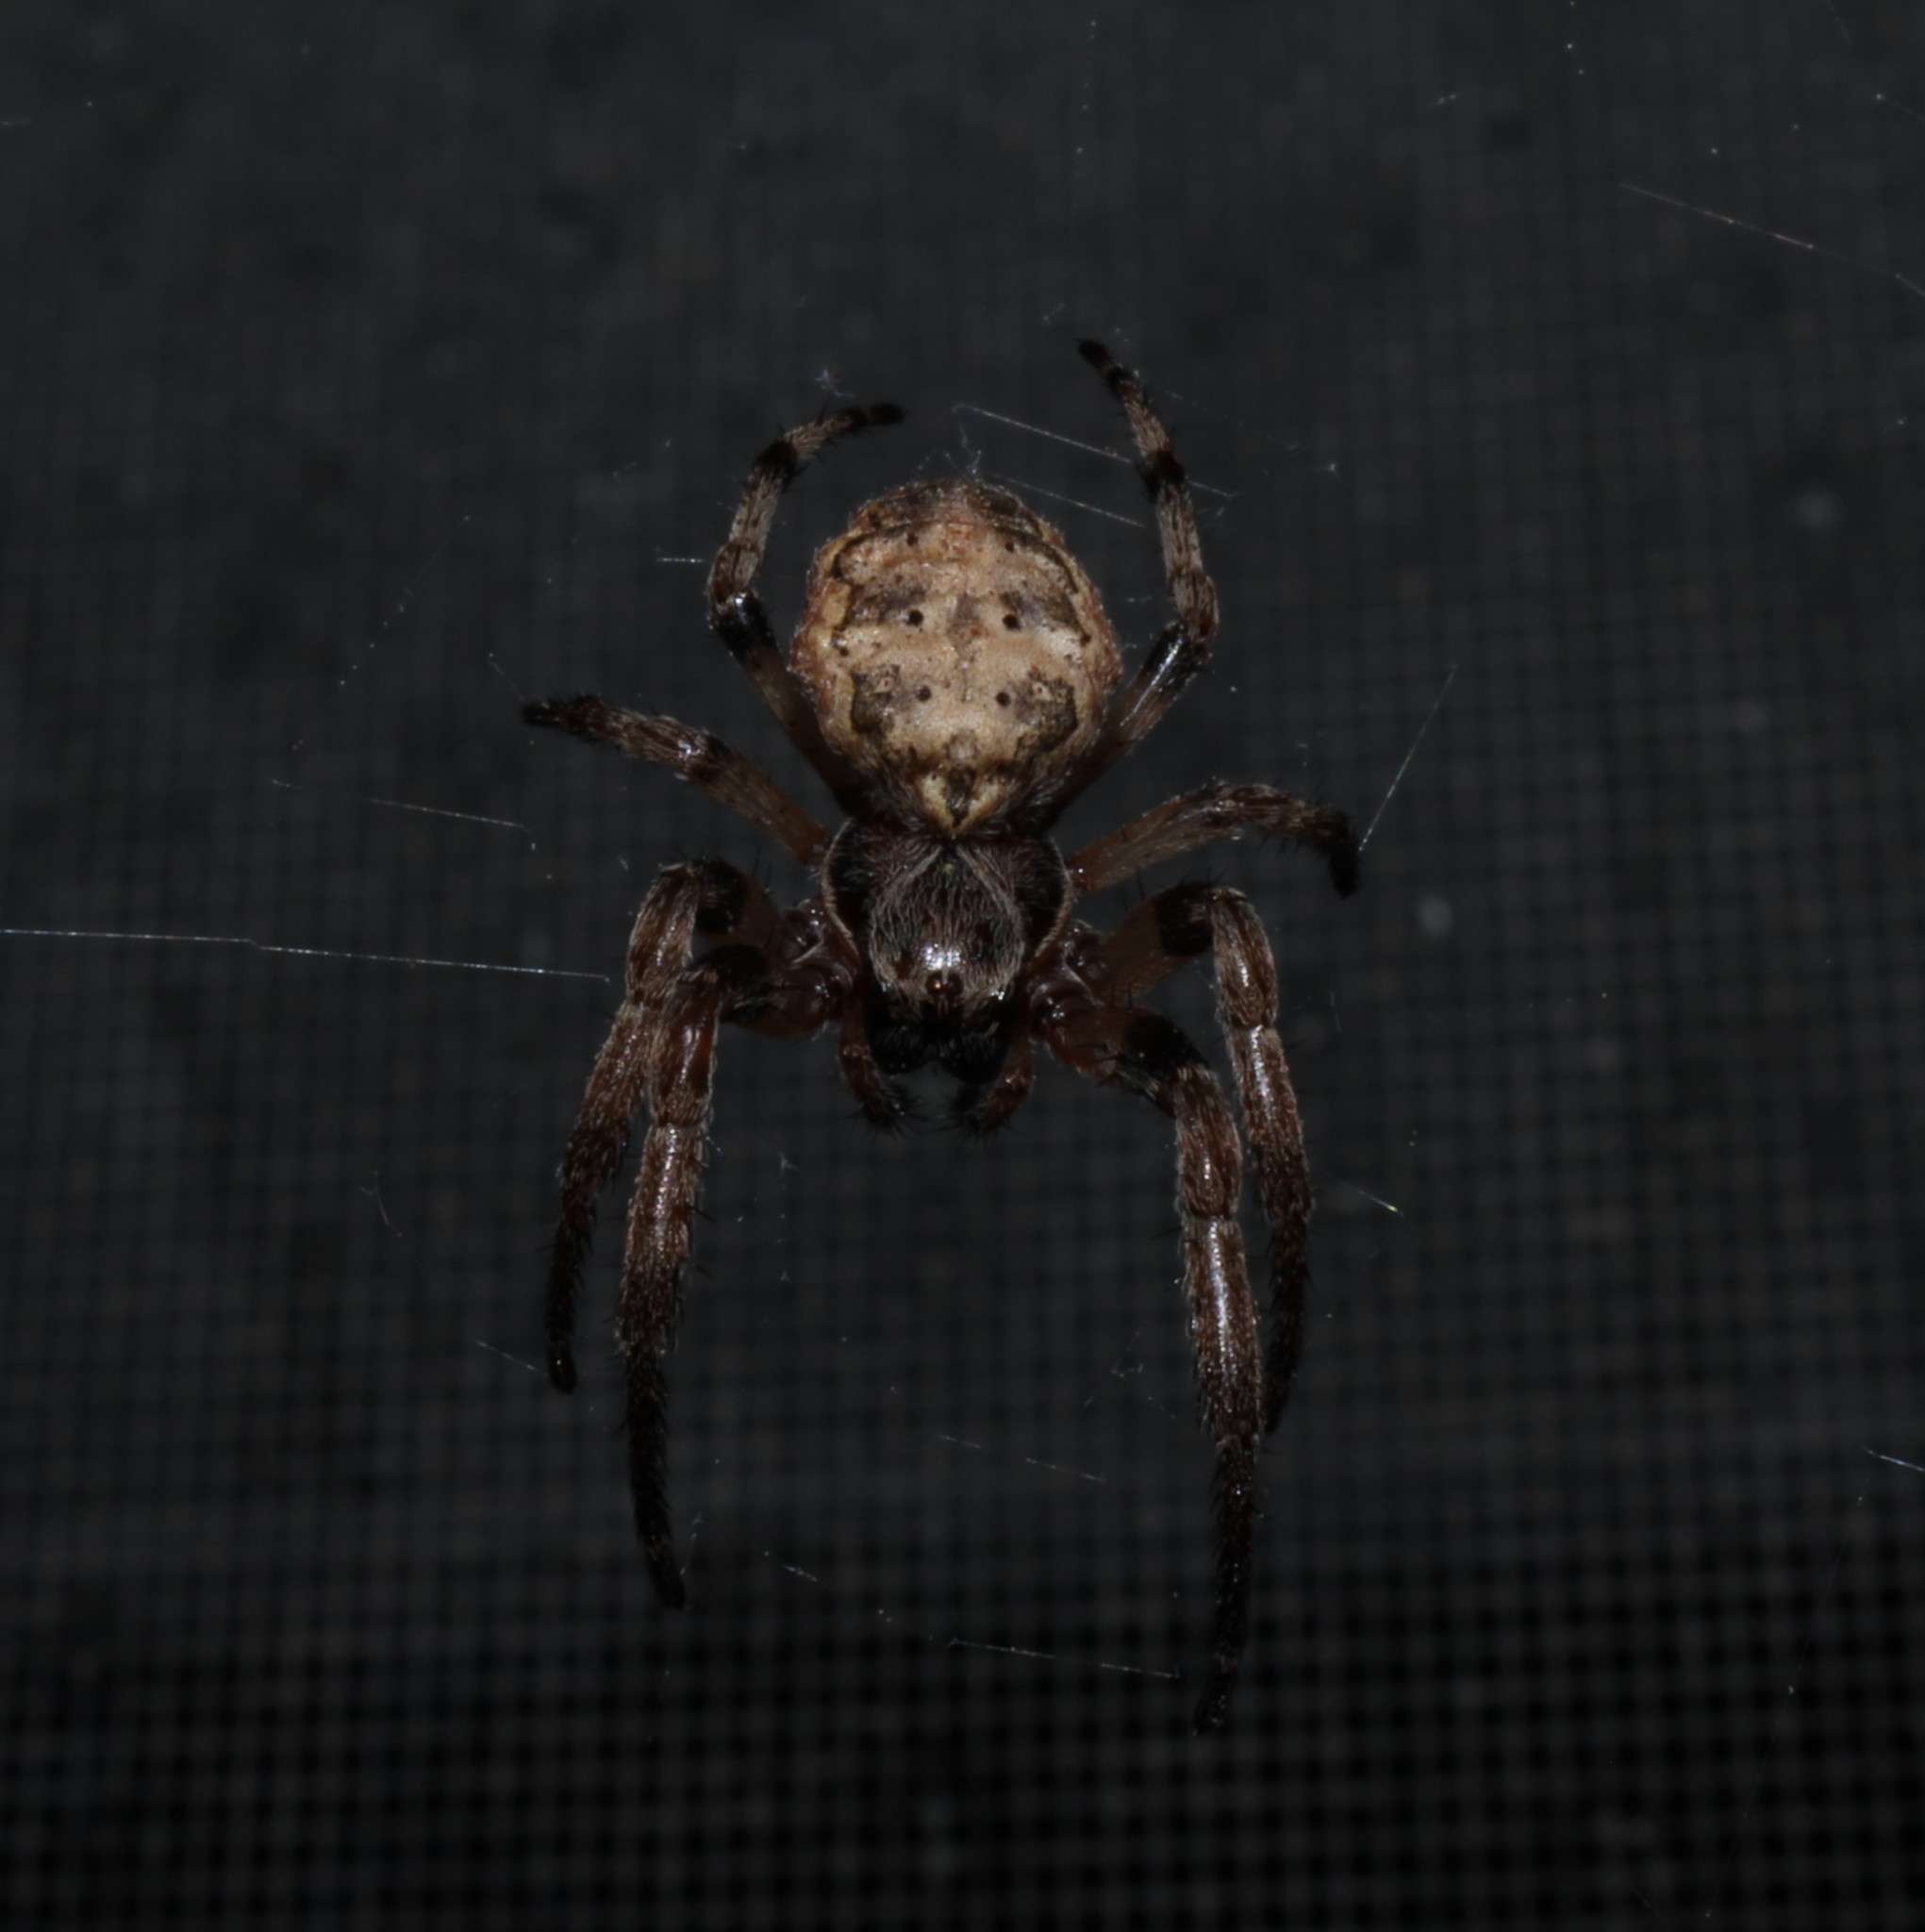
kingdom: Animalia
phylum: Arthropoda
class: Arachnida
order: Araneae
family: Araneidae
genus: Larinioides
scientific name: Larinioides cornutus
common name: Furrow orbweaver
